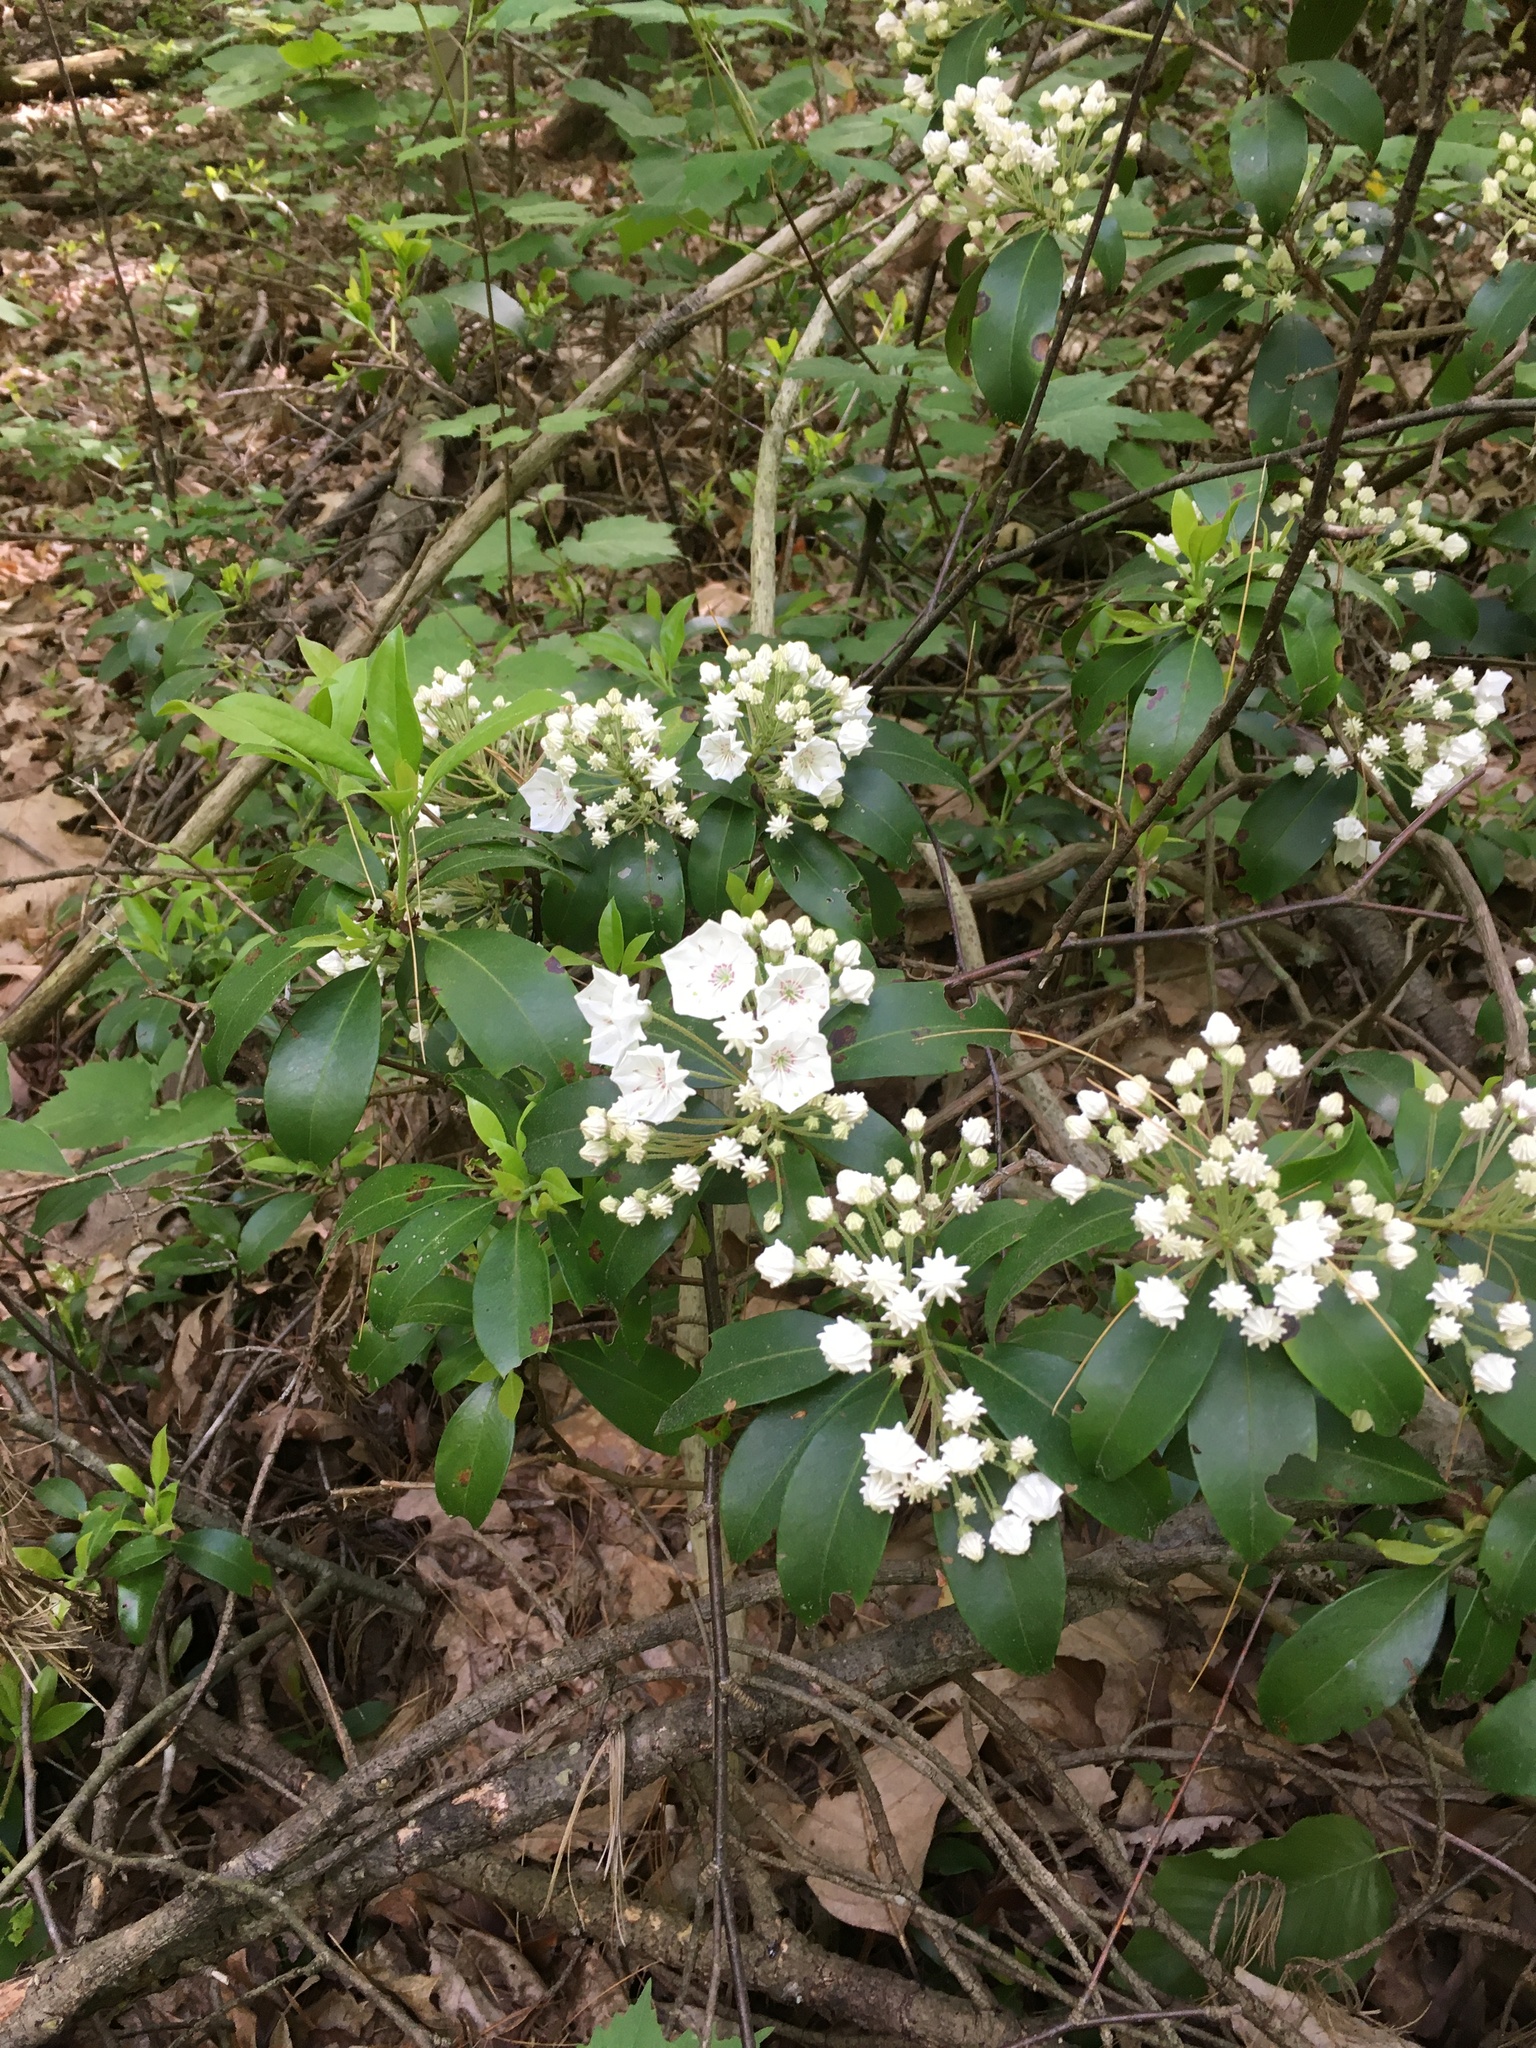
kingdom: Plantae
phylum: Tracheophyta
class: Magnoliopsida
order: Ericales
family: Ericaceae
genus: Kalmia
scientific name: Kalmia latifolia
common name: Mountain-laurel
